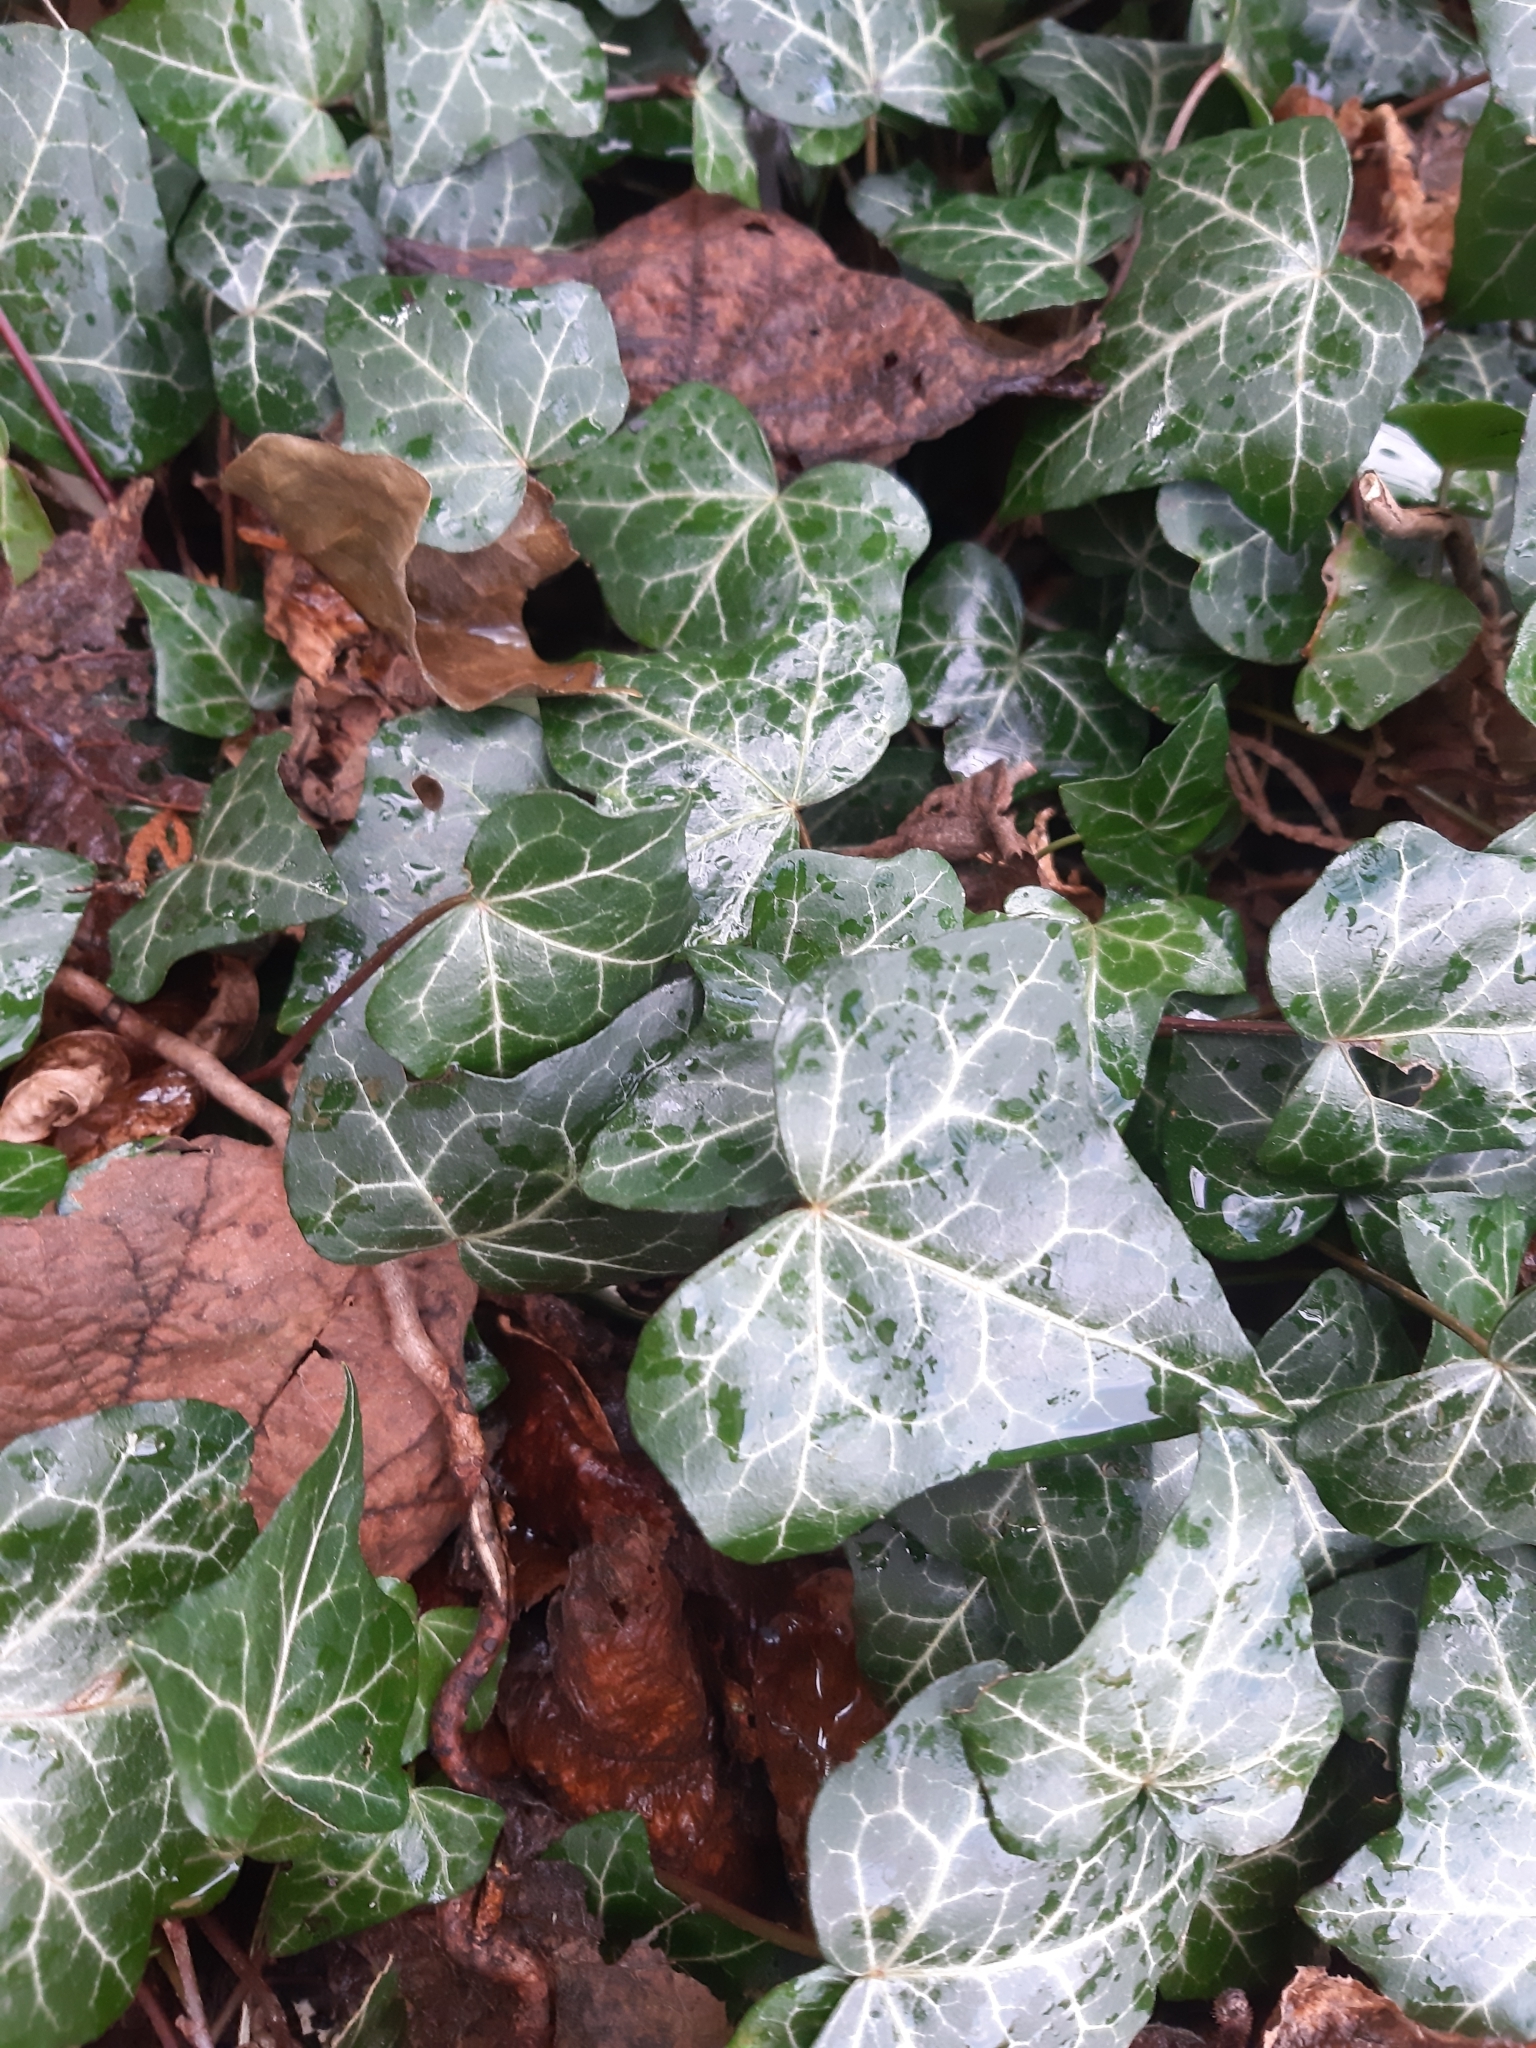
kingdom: Plantae
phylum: Tracheophyta
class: Magnoliopsida
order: Apiales
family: Araliaceae
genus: Hedera
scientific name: Hedera helix
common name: Ivy
